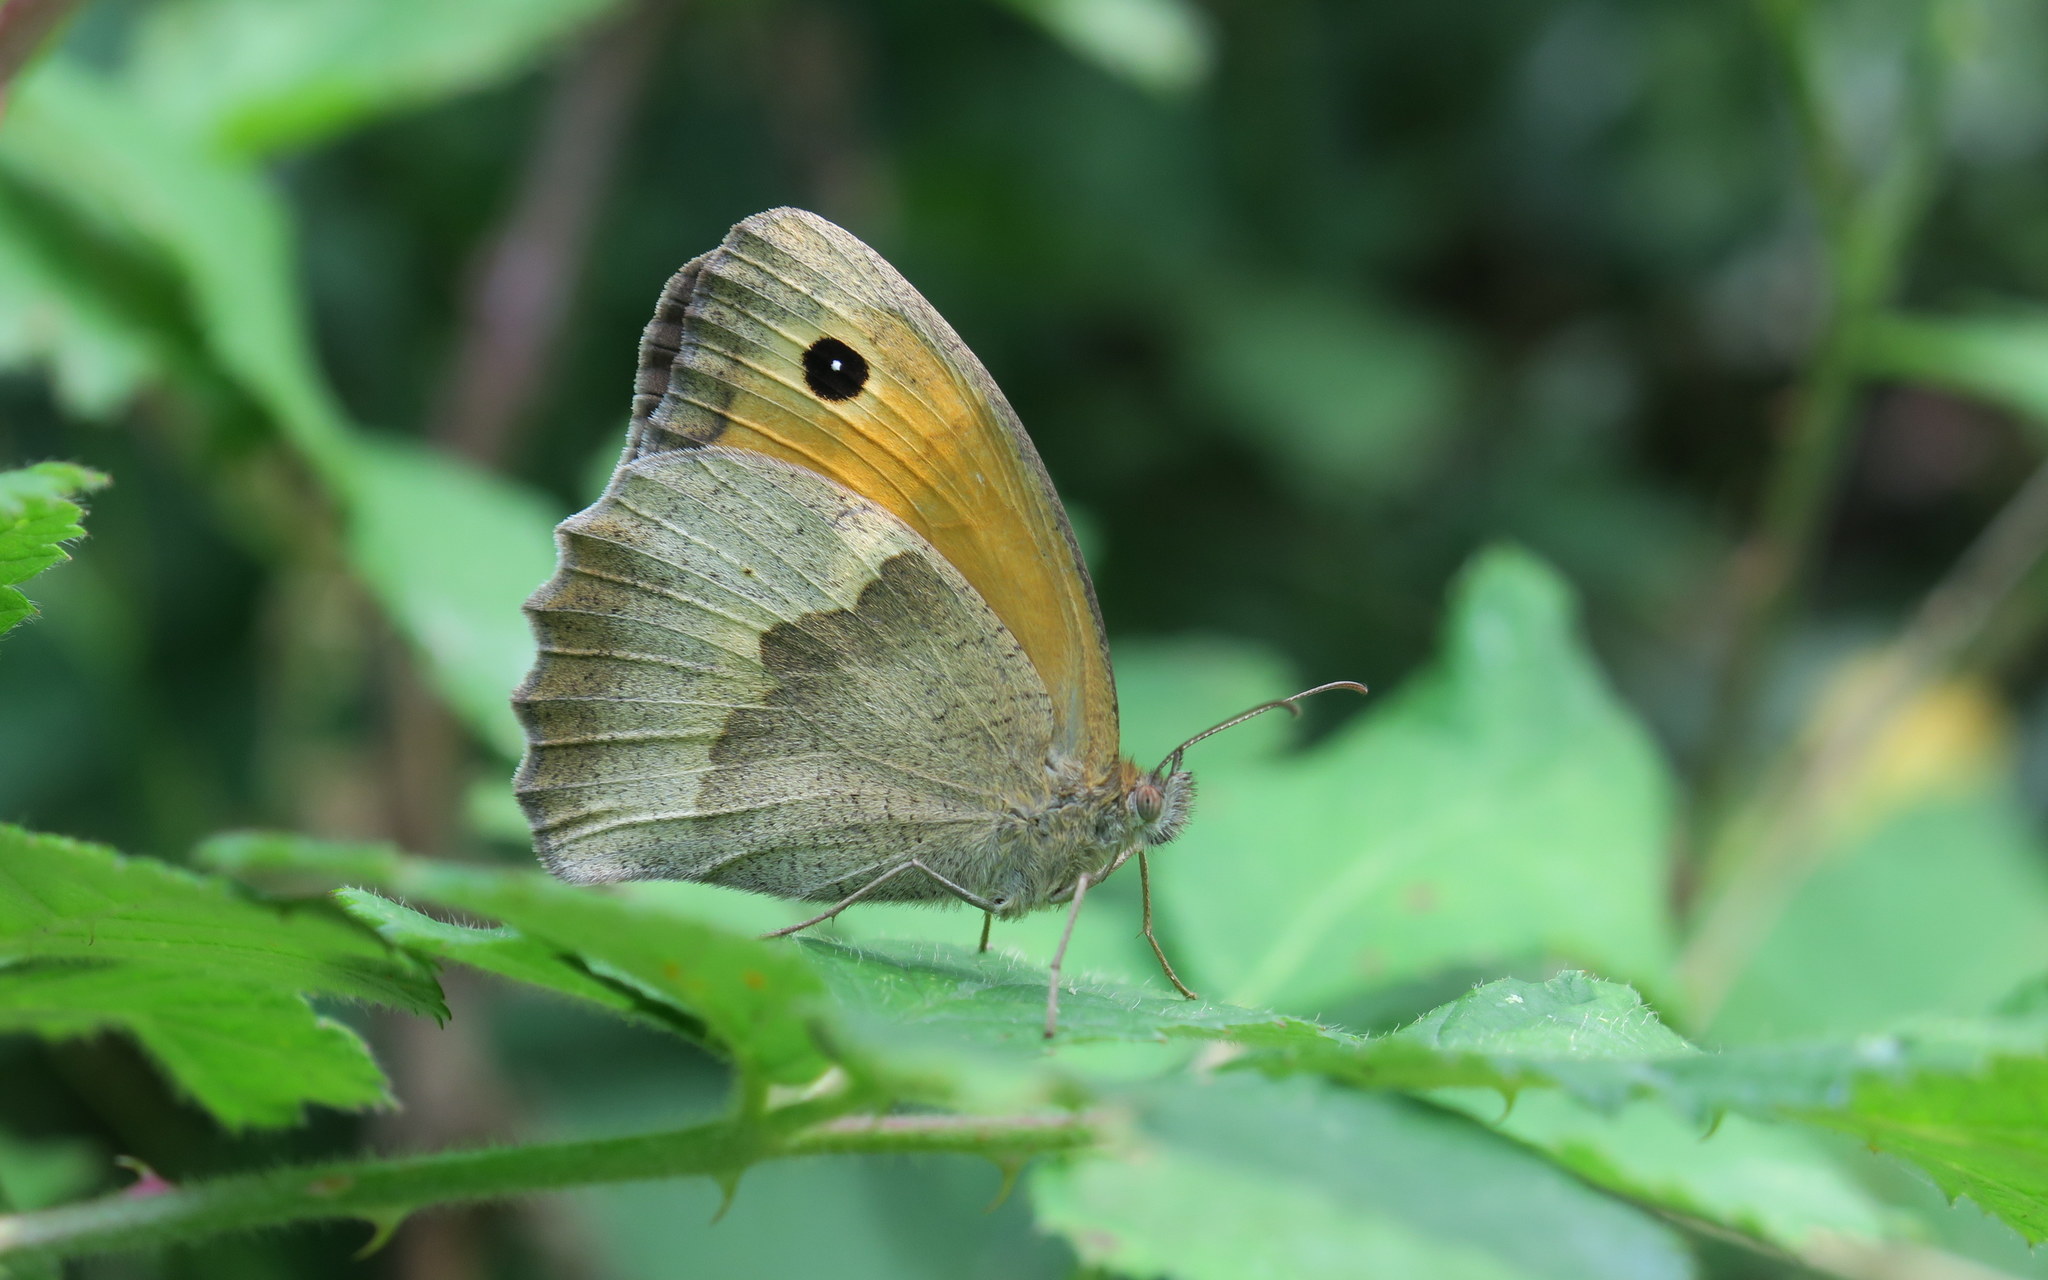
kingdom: Animalia
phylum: Arthropoda
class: Insecta
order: Lepidoptera
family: Nymphalidae
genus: Maniola
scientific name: Maniola jurtina
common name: Meadow brown
